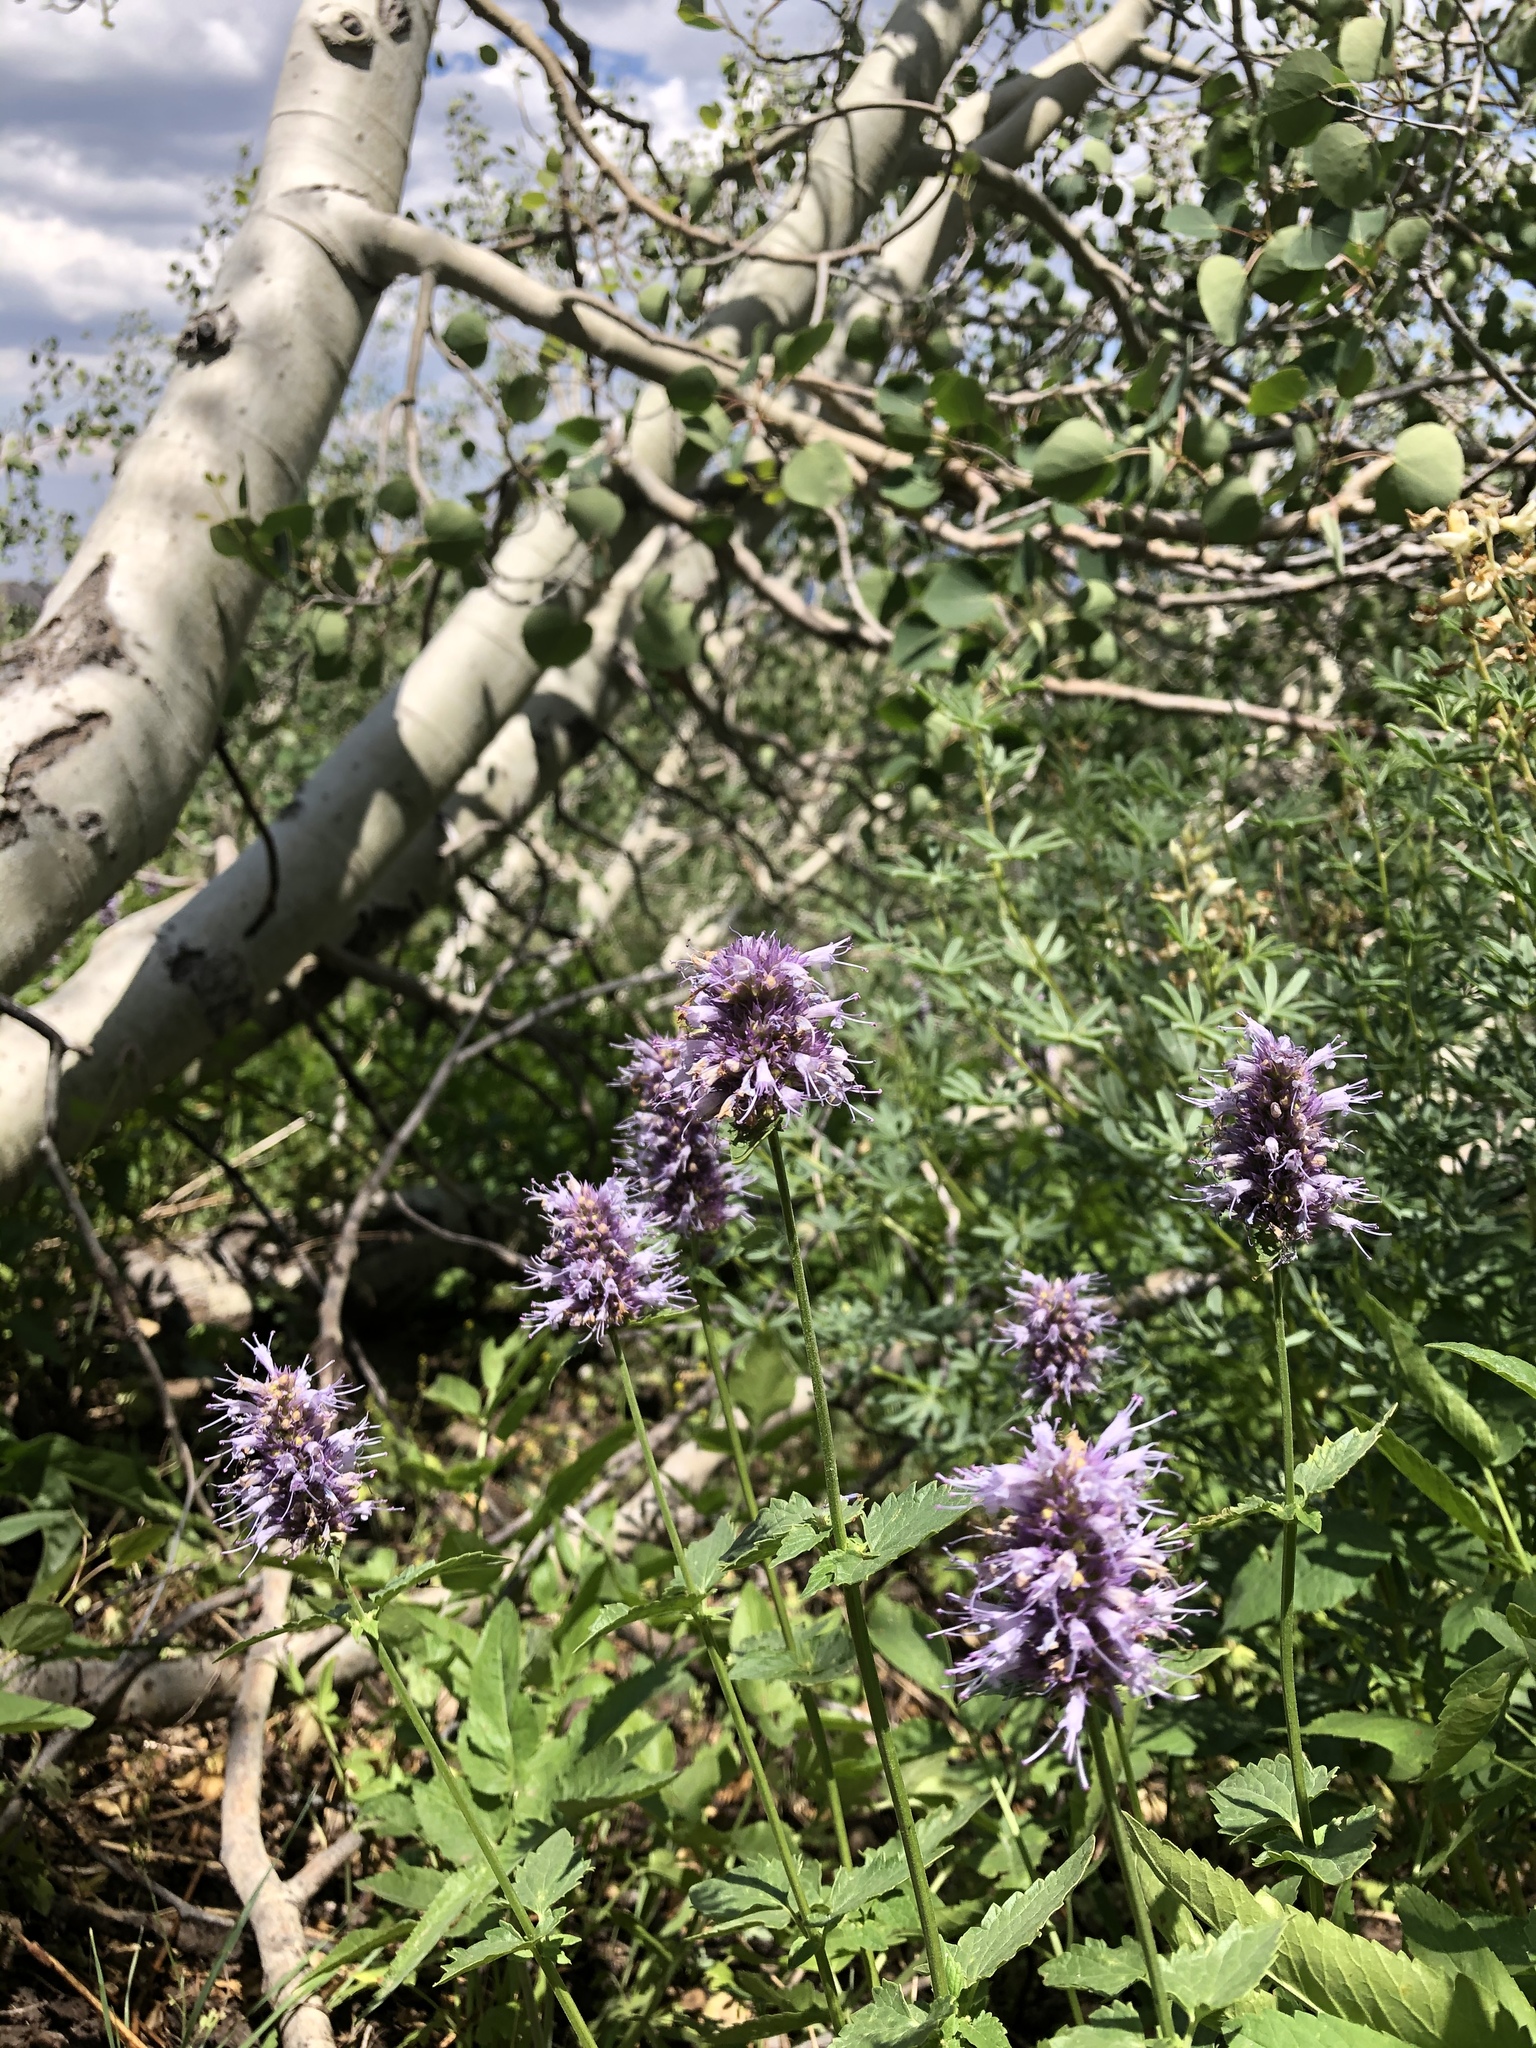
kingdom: Plantae
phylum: Tracheophyta
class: Magnoliopsida
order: Lamiales
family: Lamiaceae
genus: Agastache
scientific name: Agastache urticifolia
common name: Horsemint giant hyssop
